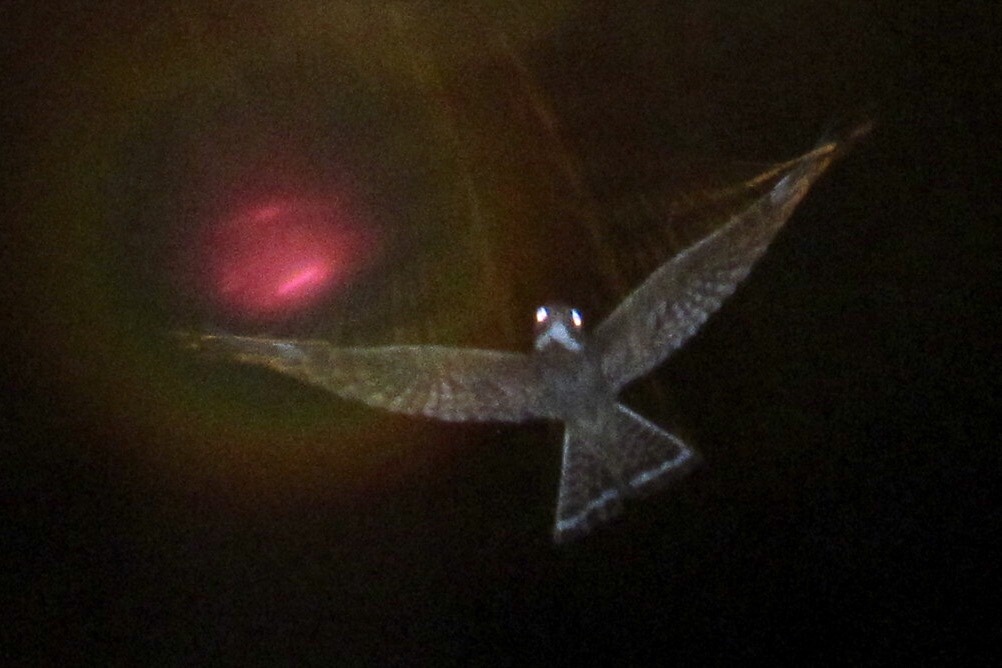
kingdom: Animalia
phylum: Chordata
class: Aves
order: Caprimulgiformes
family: Caprimulgidae
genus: Chordeiles
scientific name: Chordeiles minor
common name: Common nighthawk
